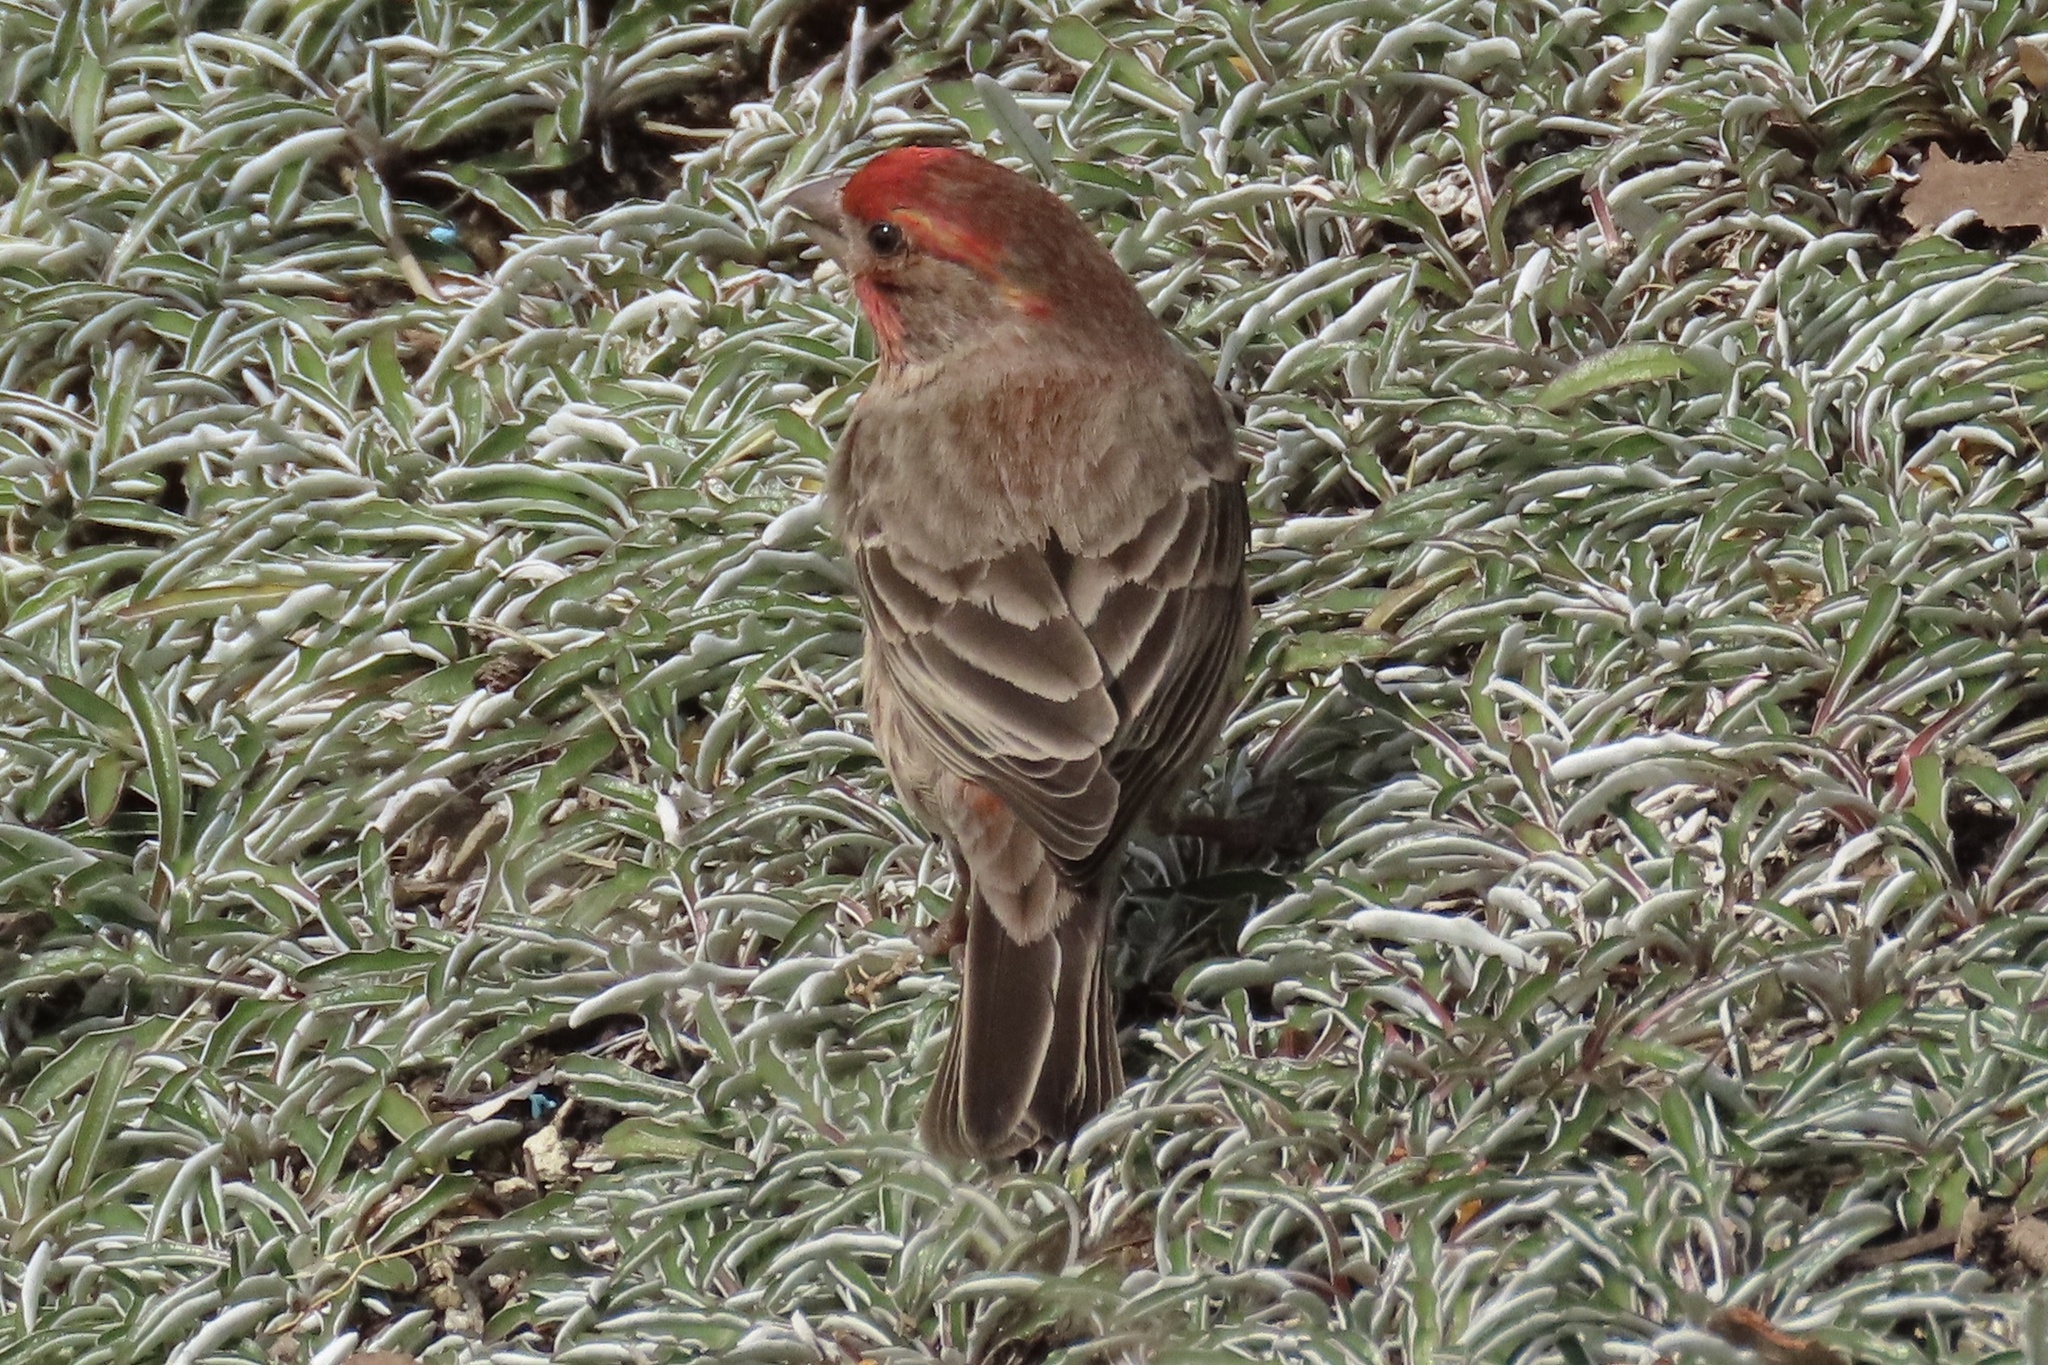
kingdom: Animalia
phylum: Chordata
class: Aves
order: Passeriformes
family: Fringillidae
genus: Haemorhous
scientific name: Haemorhous mexicanus
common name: House finch
